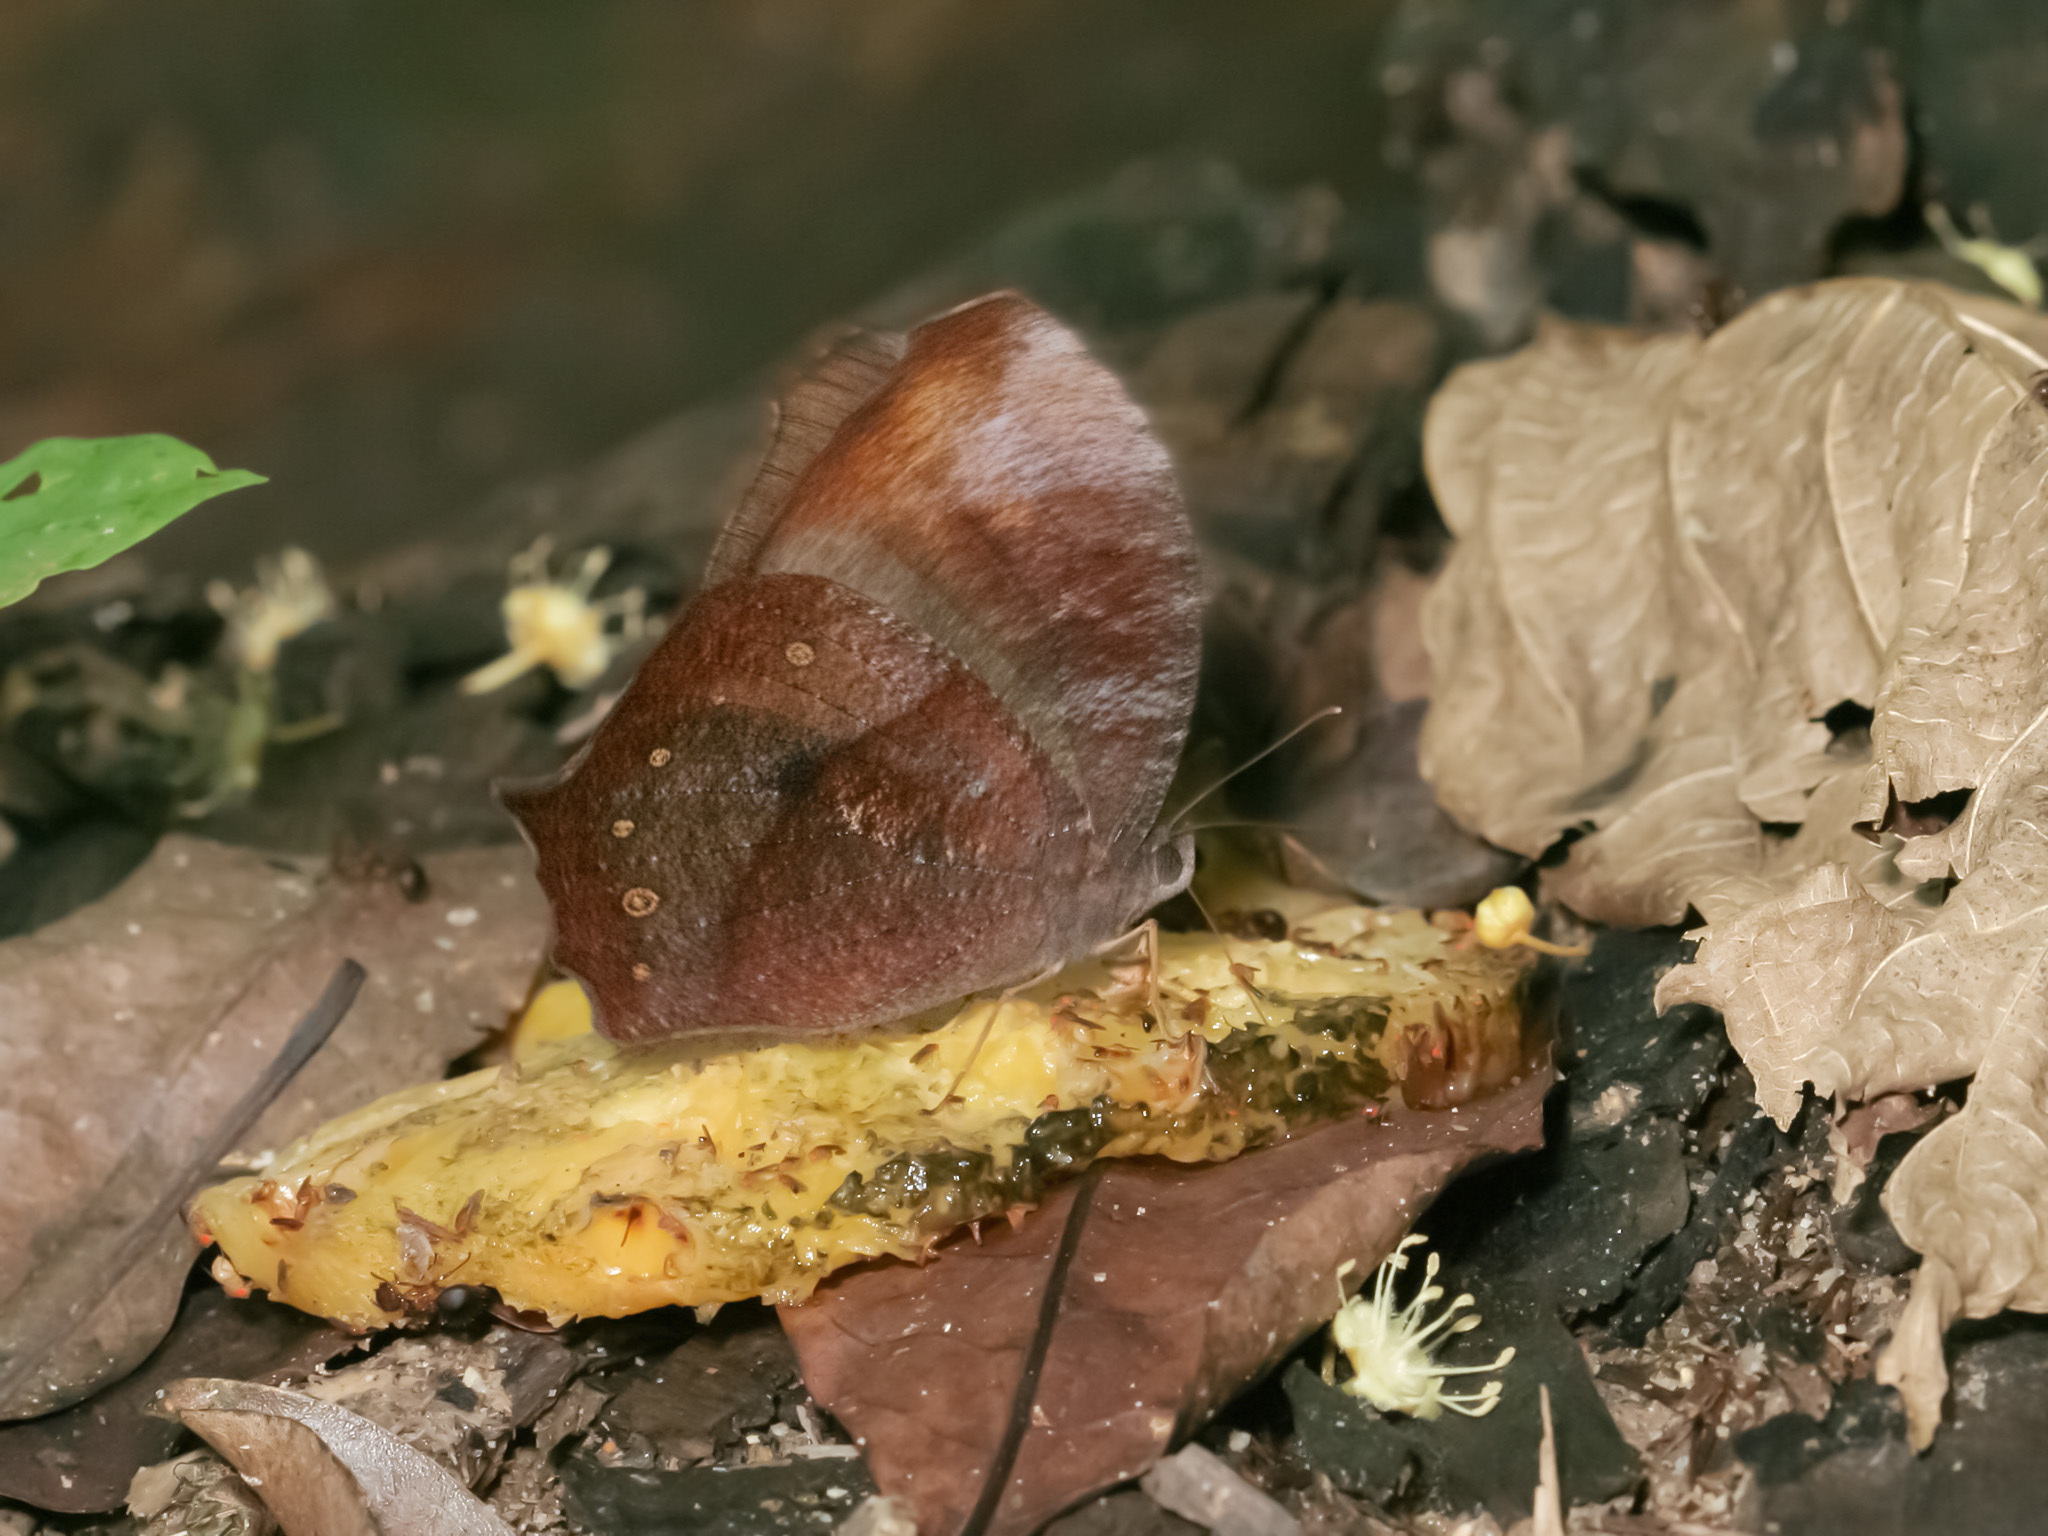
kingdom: Animalia
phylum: Arthropoda
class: Insecta
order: Lepidoptera
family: Nymphalidae
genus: Melanitis
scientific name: Melanitis phedima
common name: Dark evening brown
